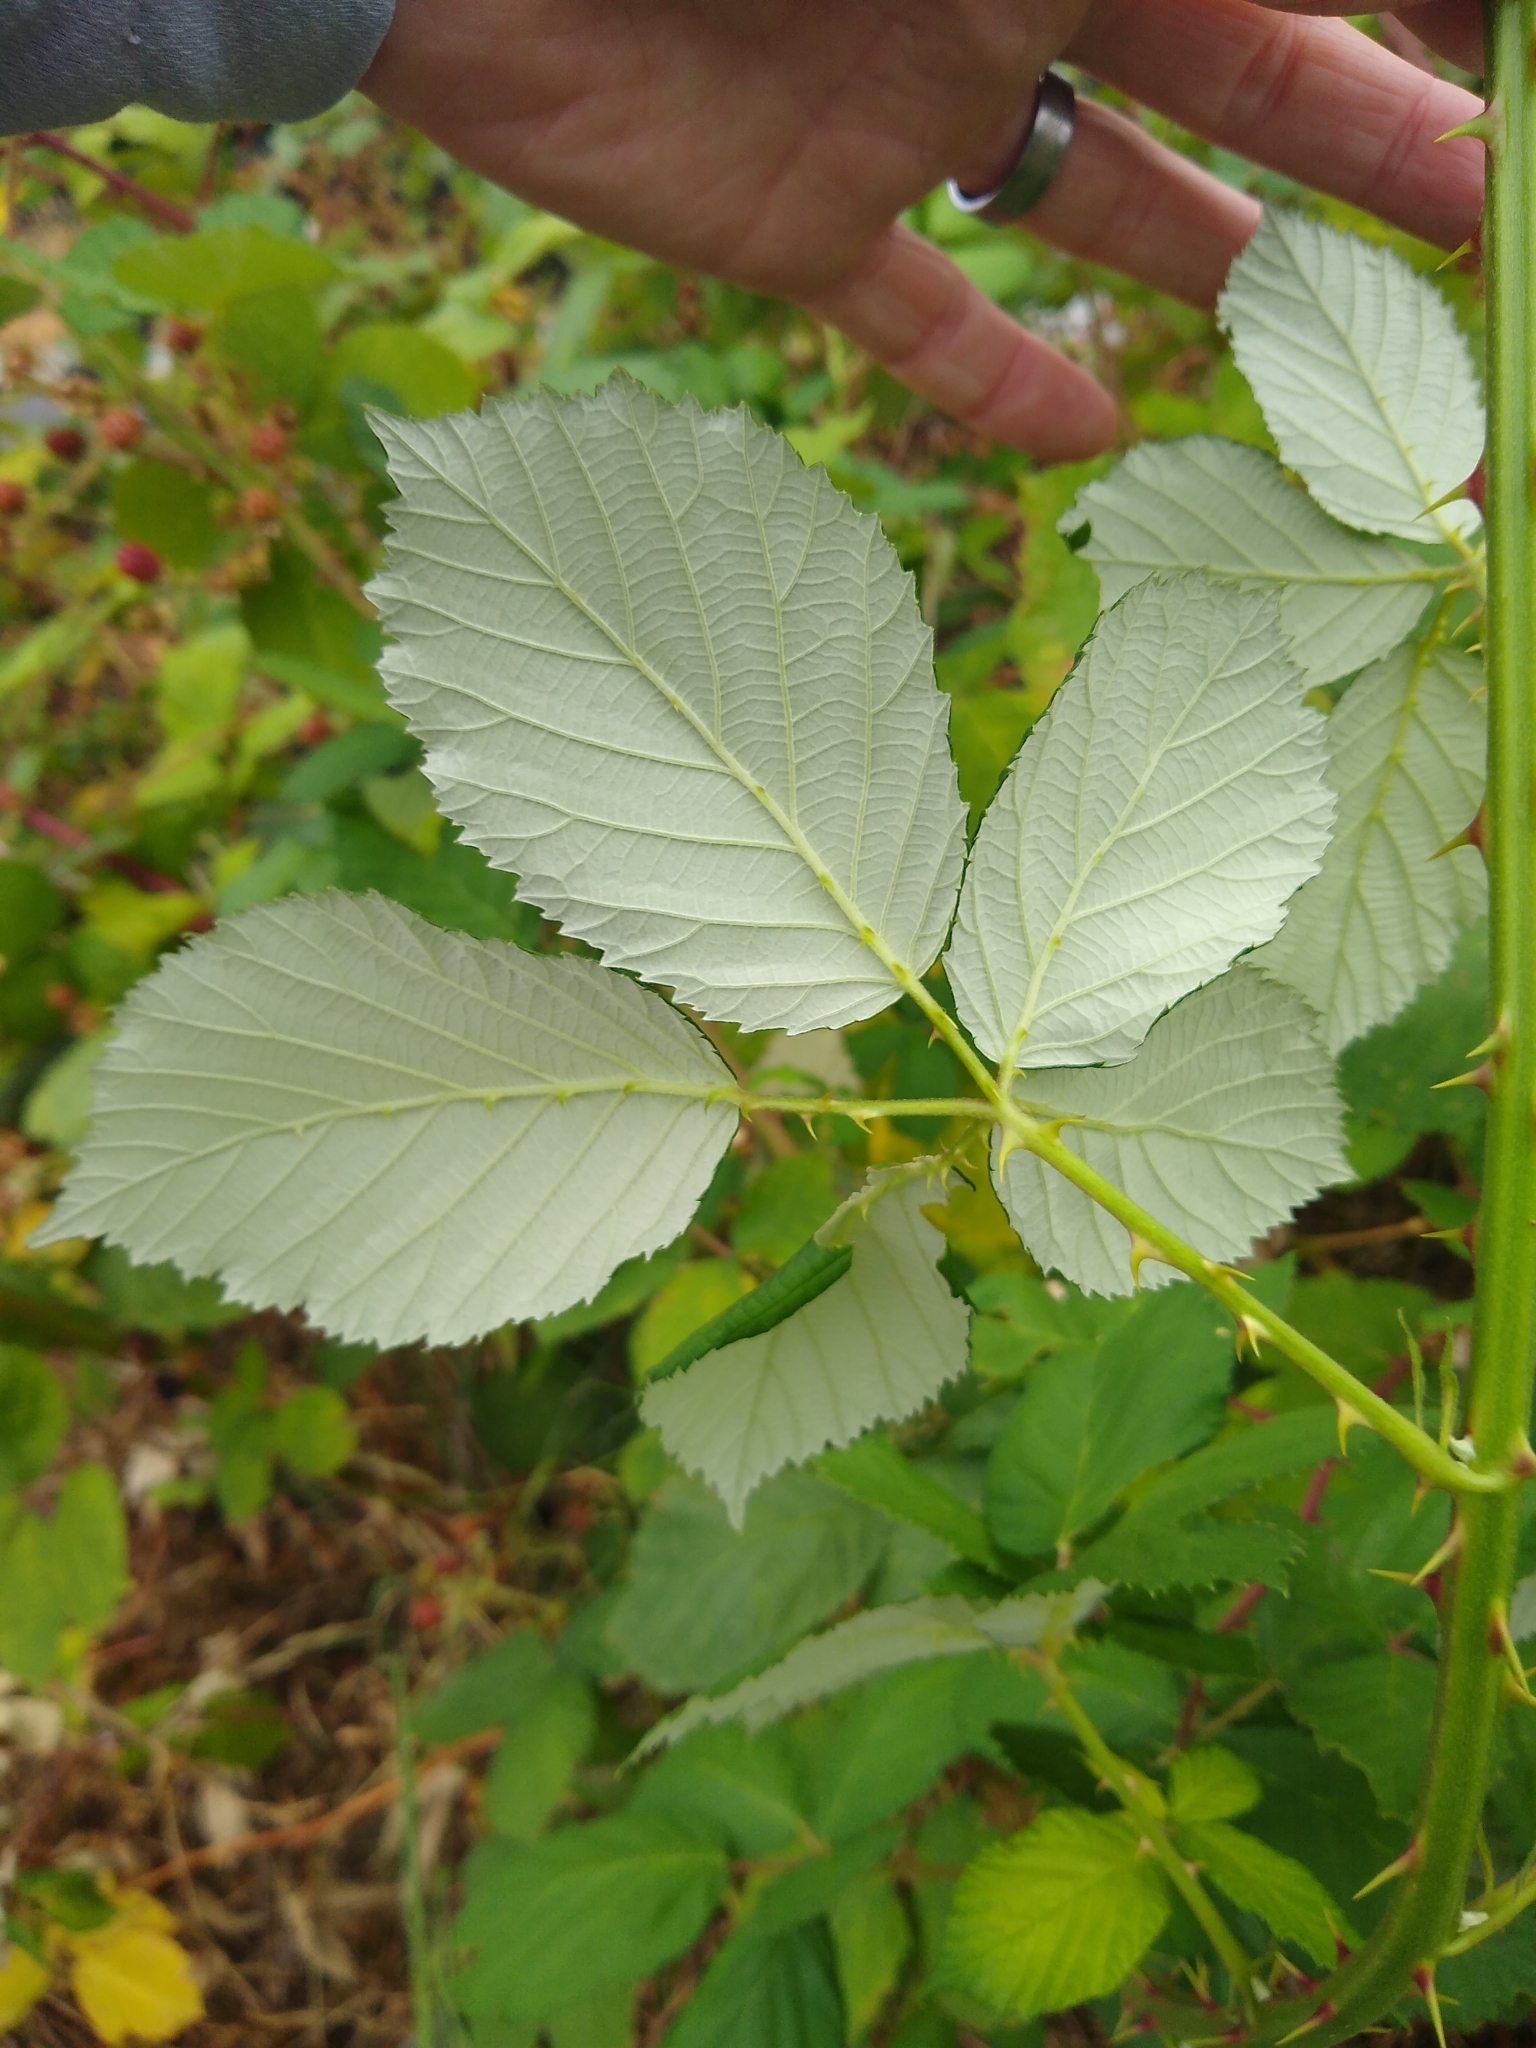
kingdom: Plantae
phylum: Tracheophyta
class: Magnoliopsida
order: Rosales
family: Rosaceae
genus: Rubus
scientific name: Rubus bifrons
